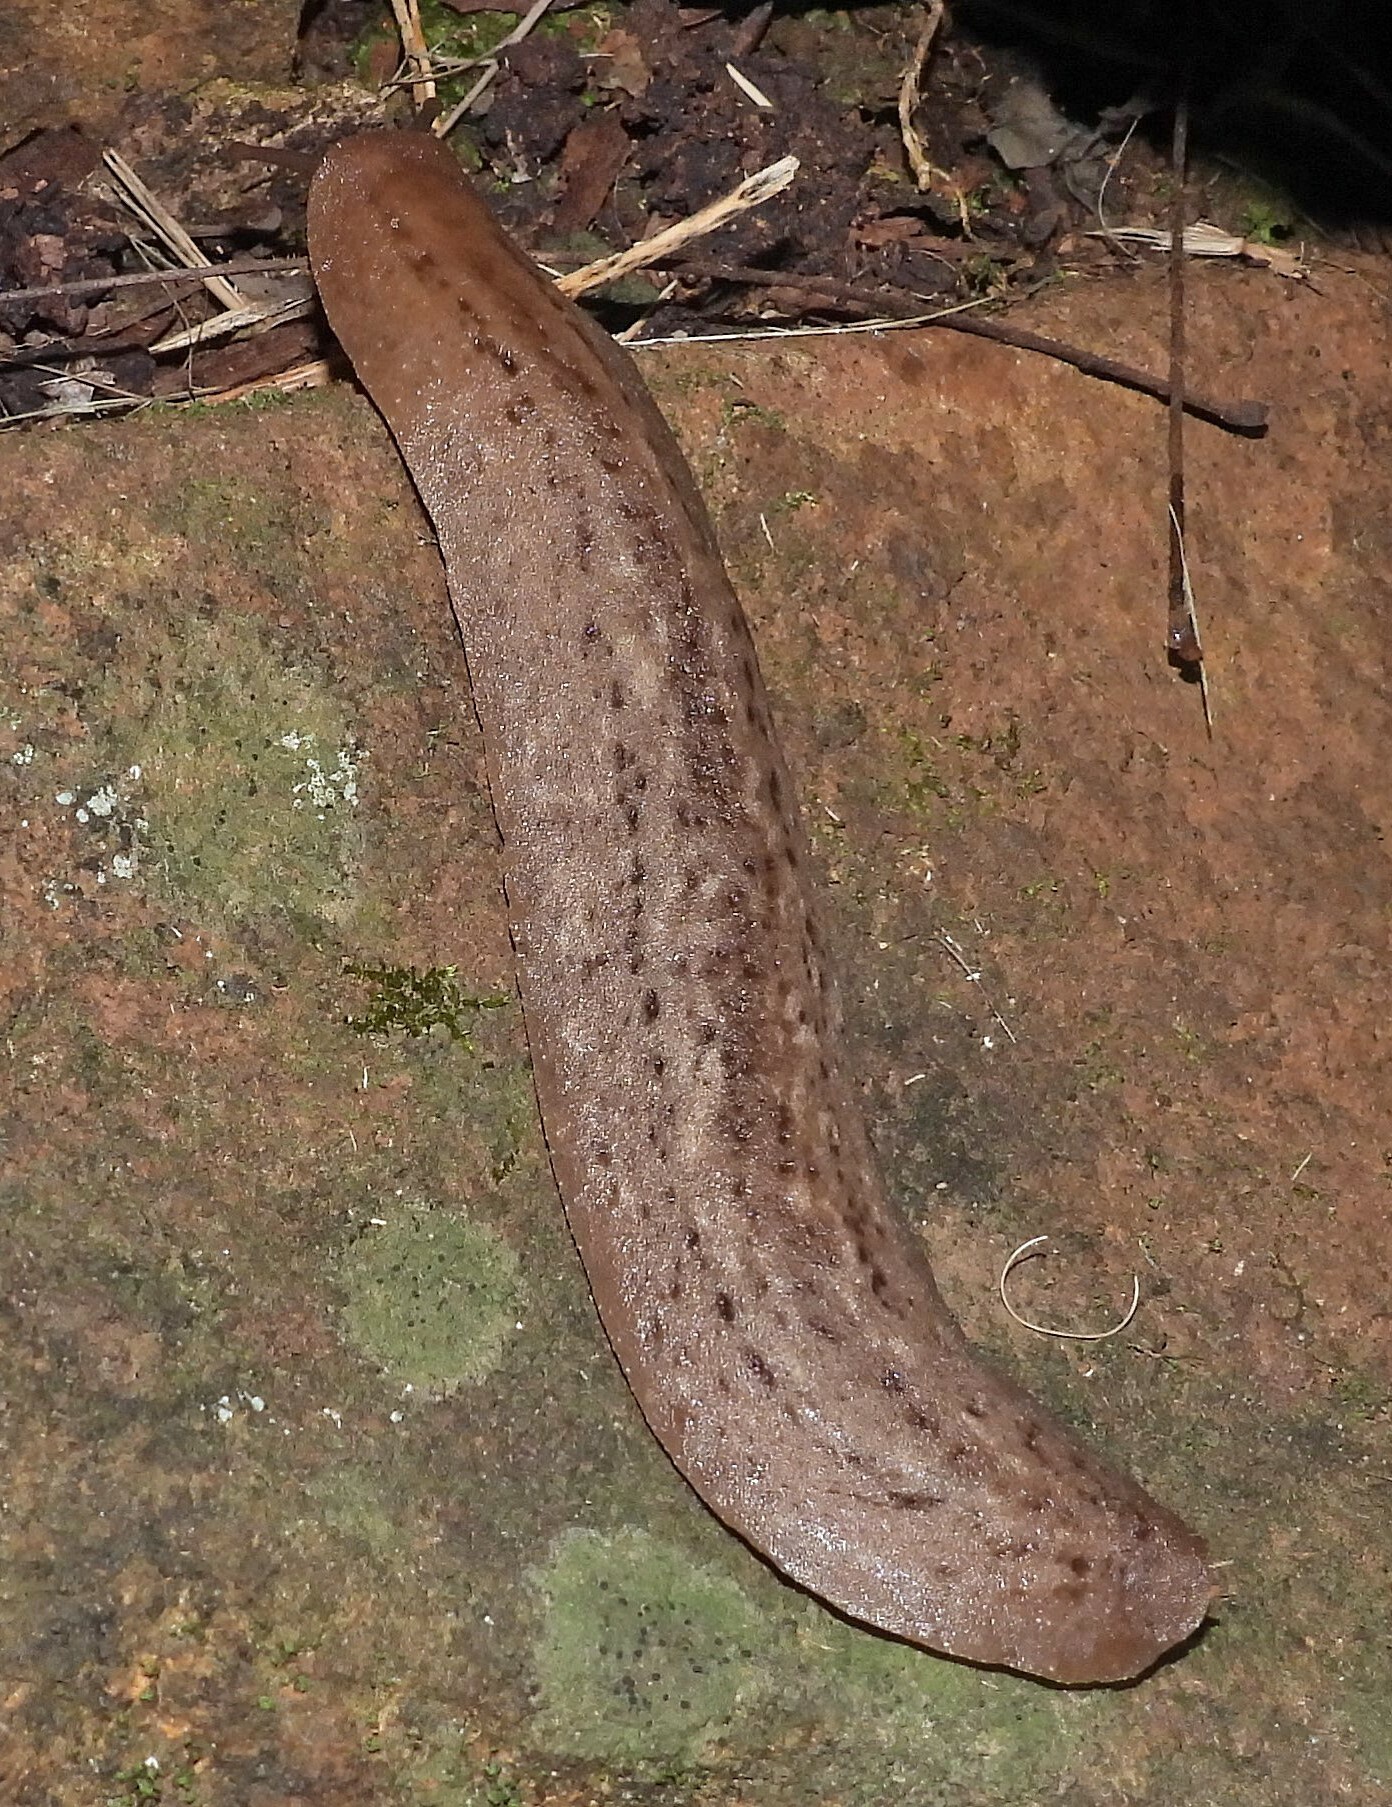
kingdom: Animalia
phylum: Mollusca
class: Gastropoda
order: Systellommatophora
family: Veronicellidae
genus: Phyllocaulis
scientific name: Phyllocaulis variegatus
